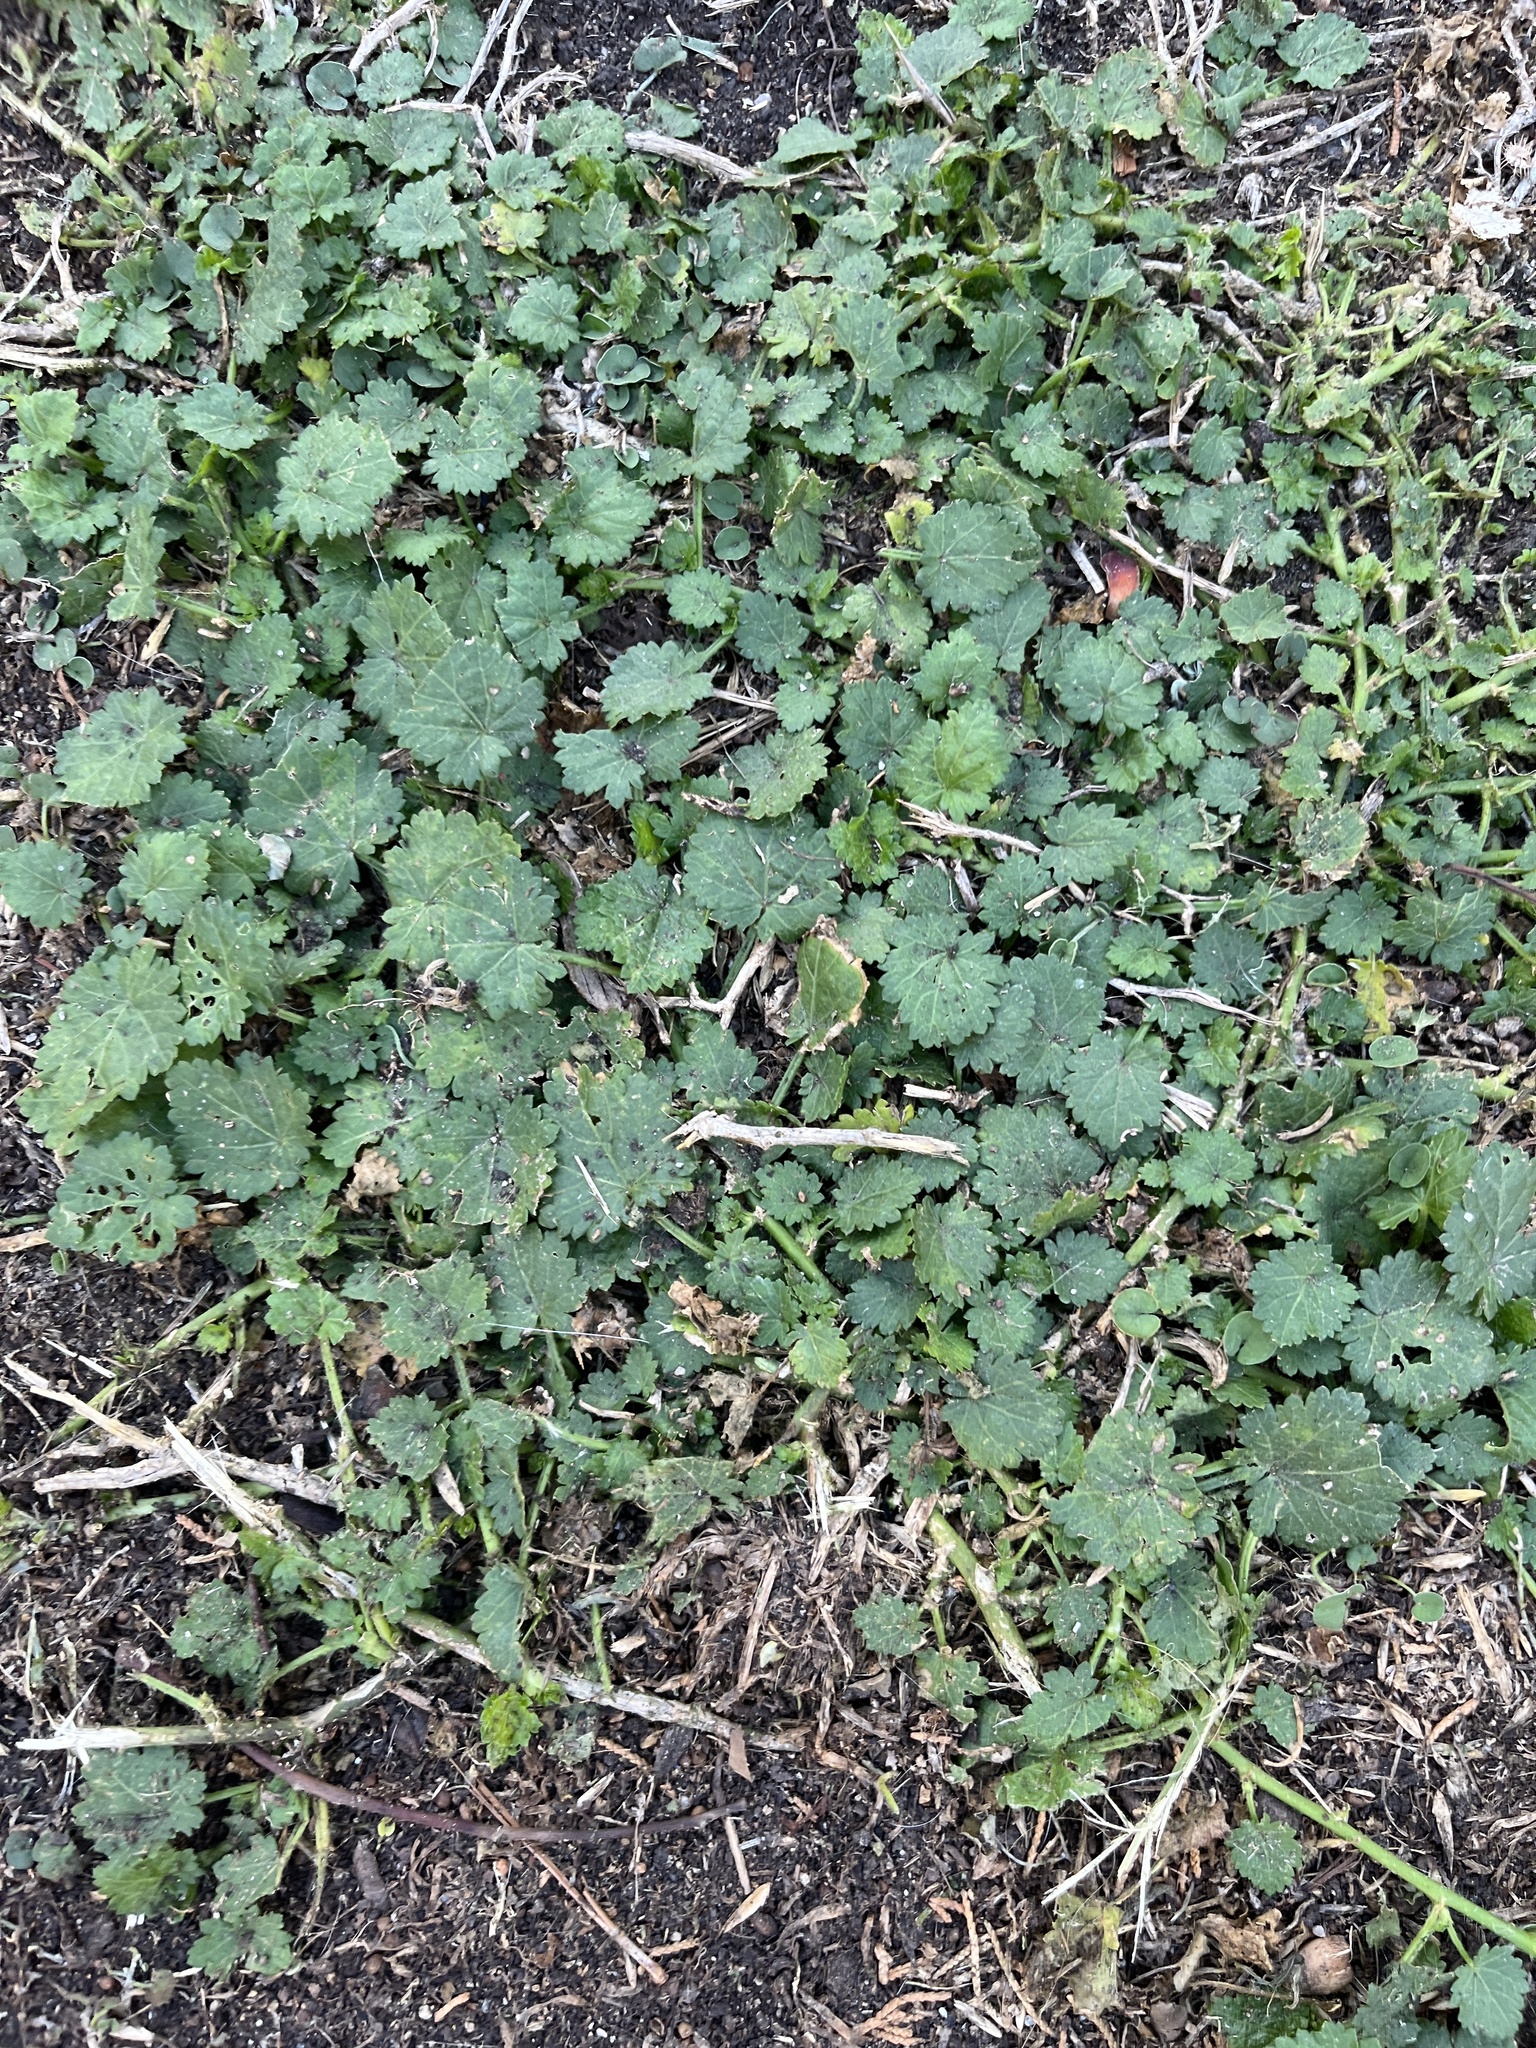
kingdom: Plantae
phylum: Tracheophyta
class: Magnoliopsida
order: Malvales
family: Malvaceae
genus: Modiola
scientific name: Modiola caroliniana
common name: Carolina bristlemallow
